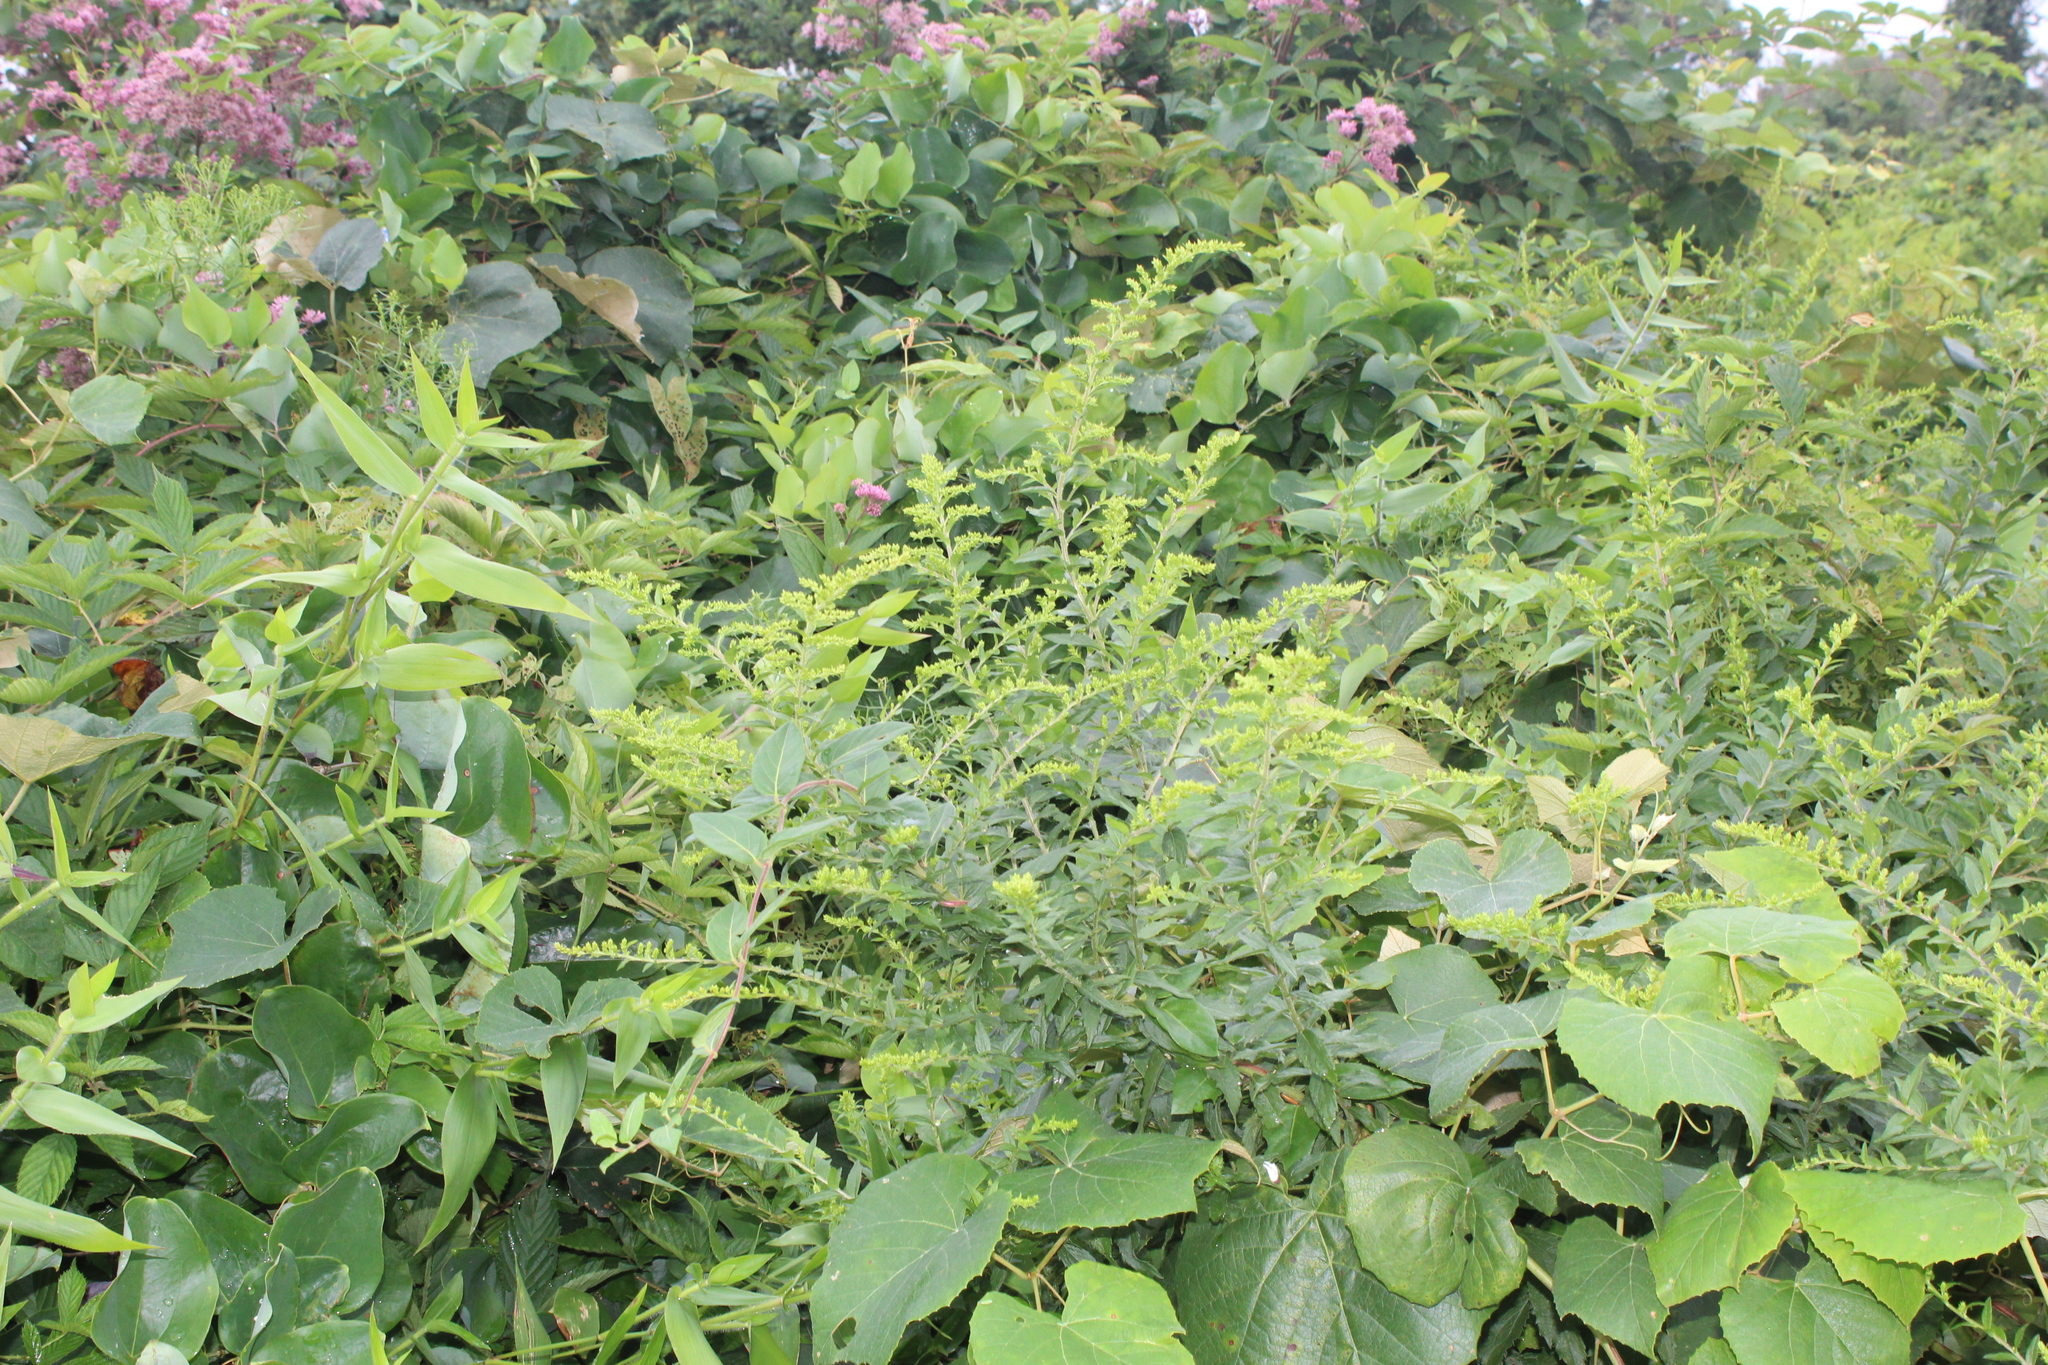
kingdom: Plantae
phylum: Tracheophyta
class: Magnoliopsida
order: Asterales
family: Asteraceae
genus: Solidago
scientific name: Solidago rugosa
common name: Rough-stemmed goldenrod
